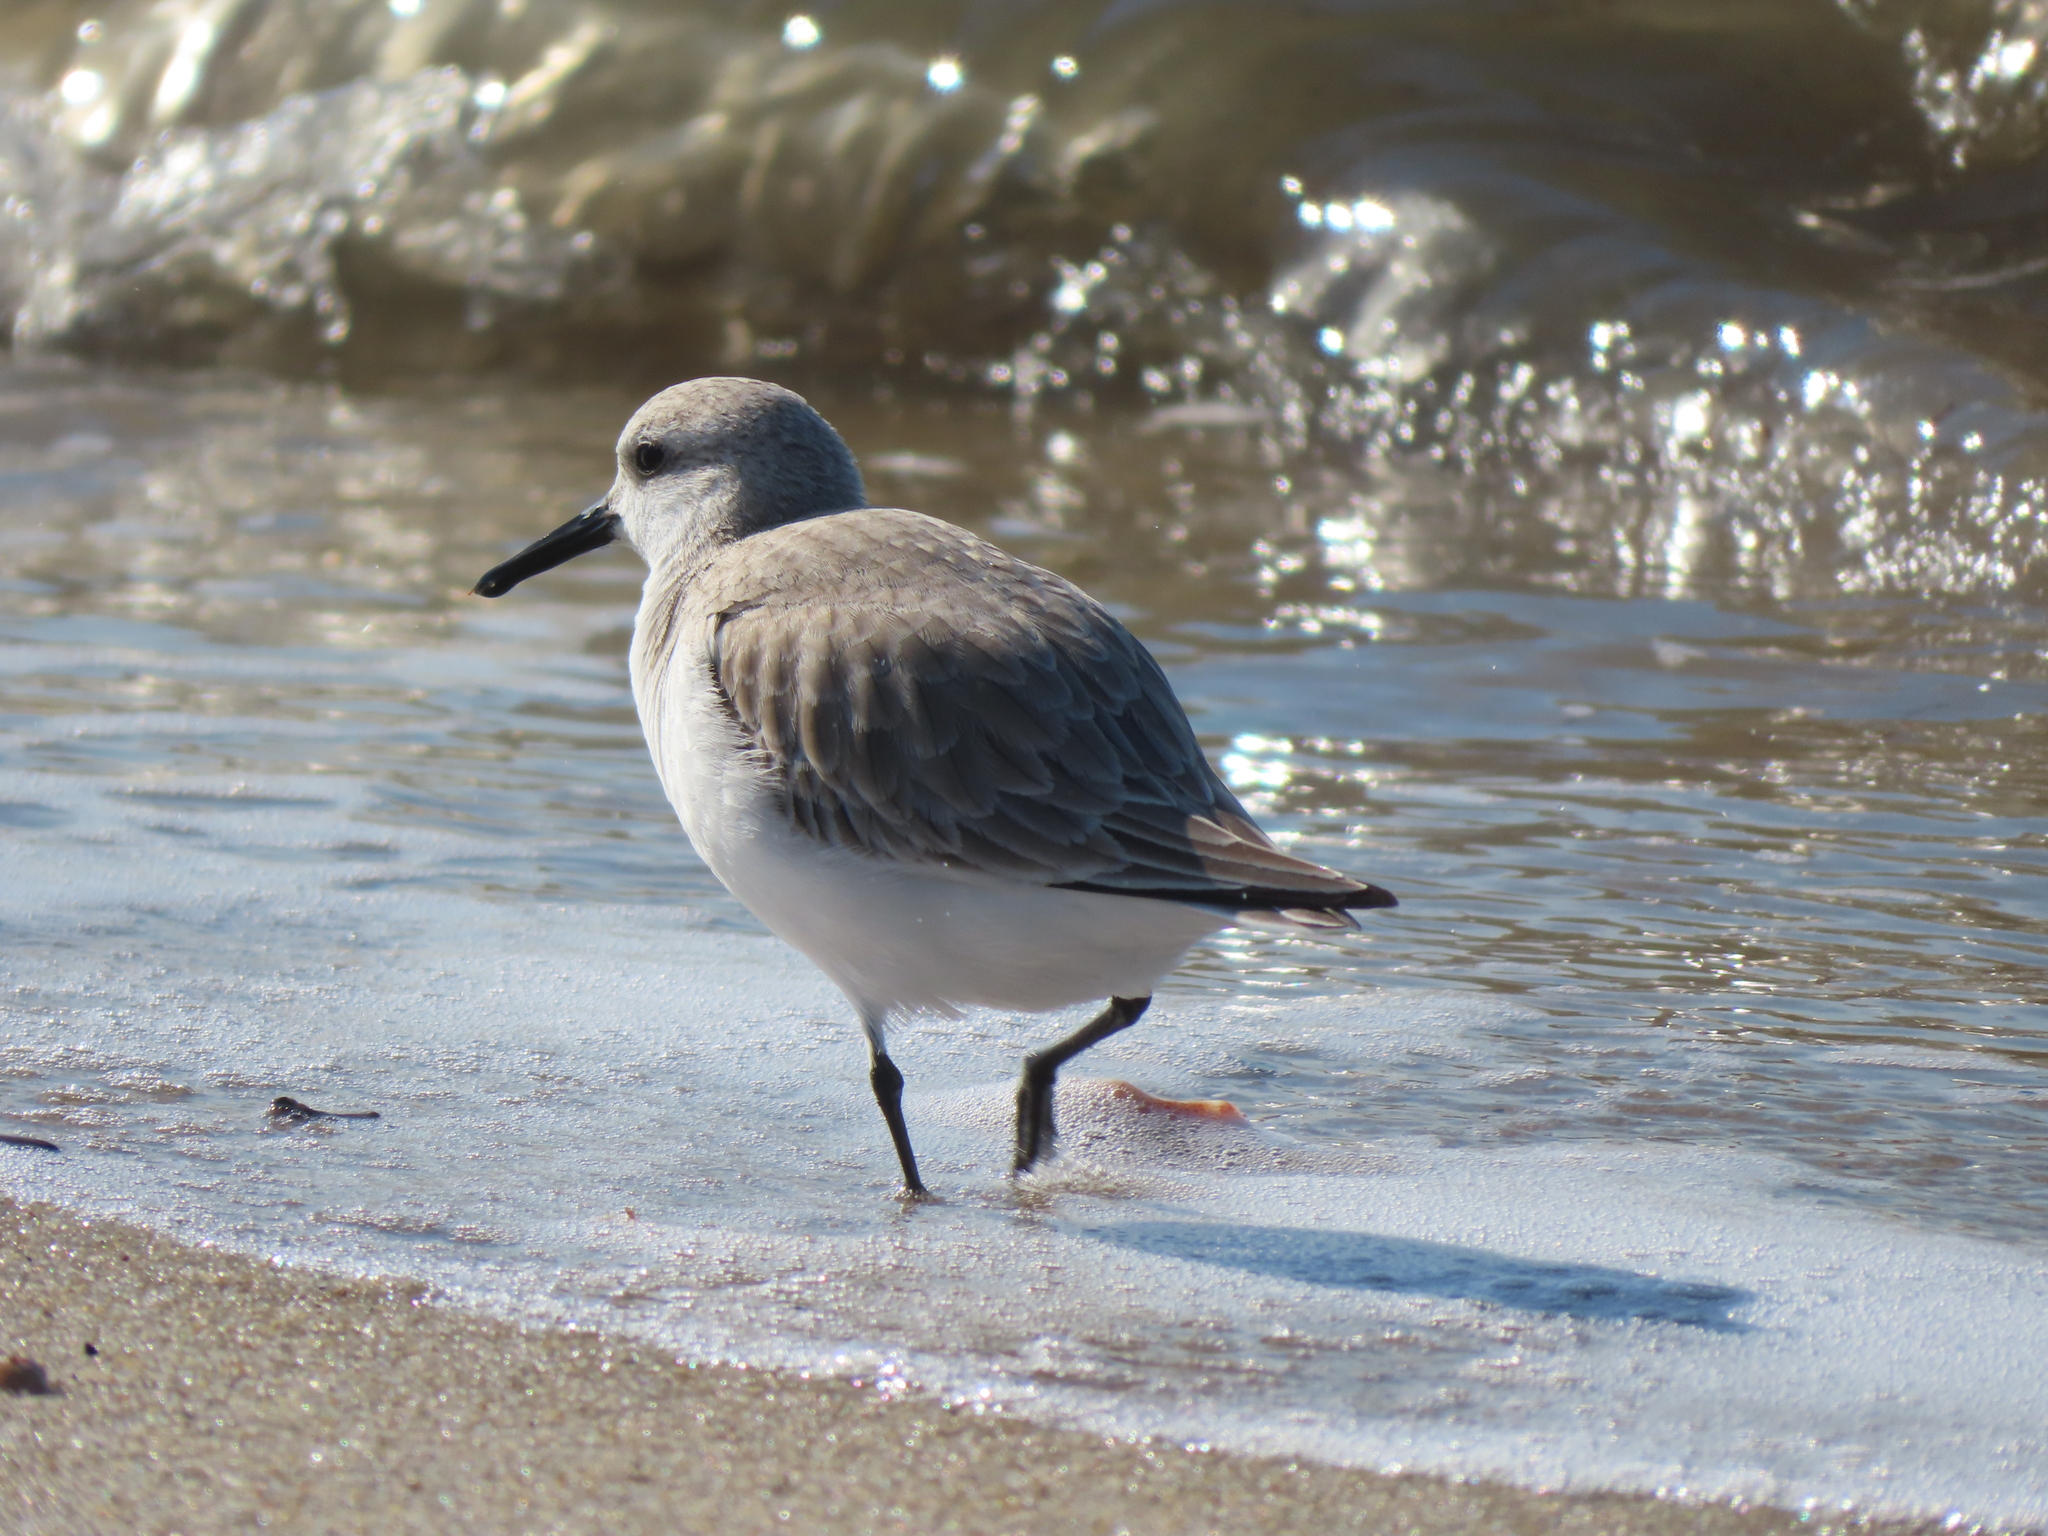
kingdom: Animalia
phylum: Chordata
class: Aves
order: Charadriiformes
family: Scolopacidae
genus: Calidris
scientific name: Calidris alba
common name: Sanderling
